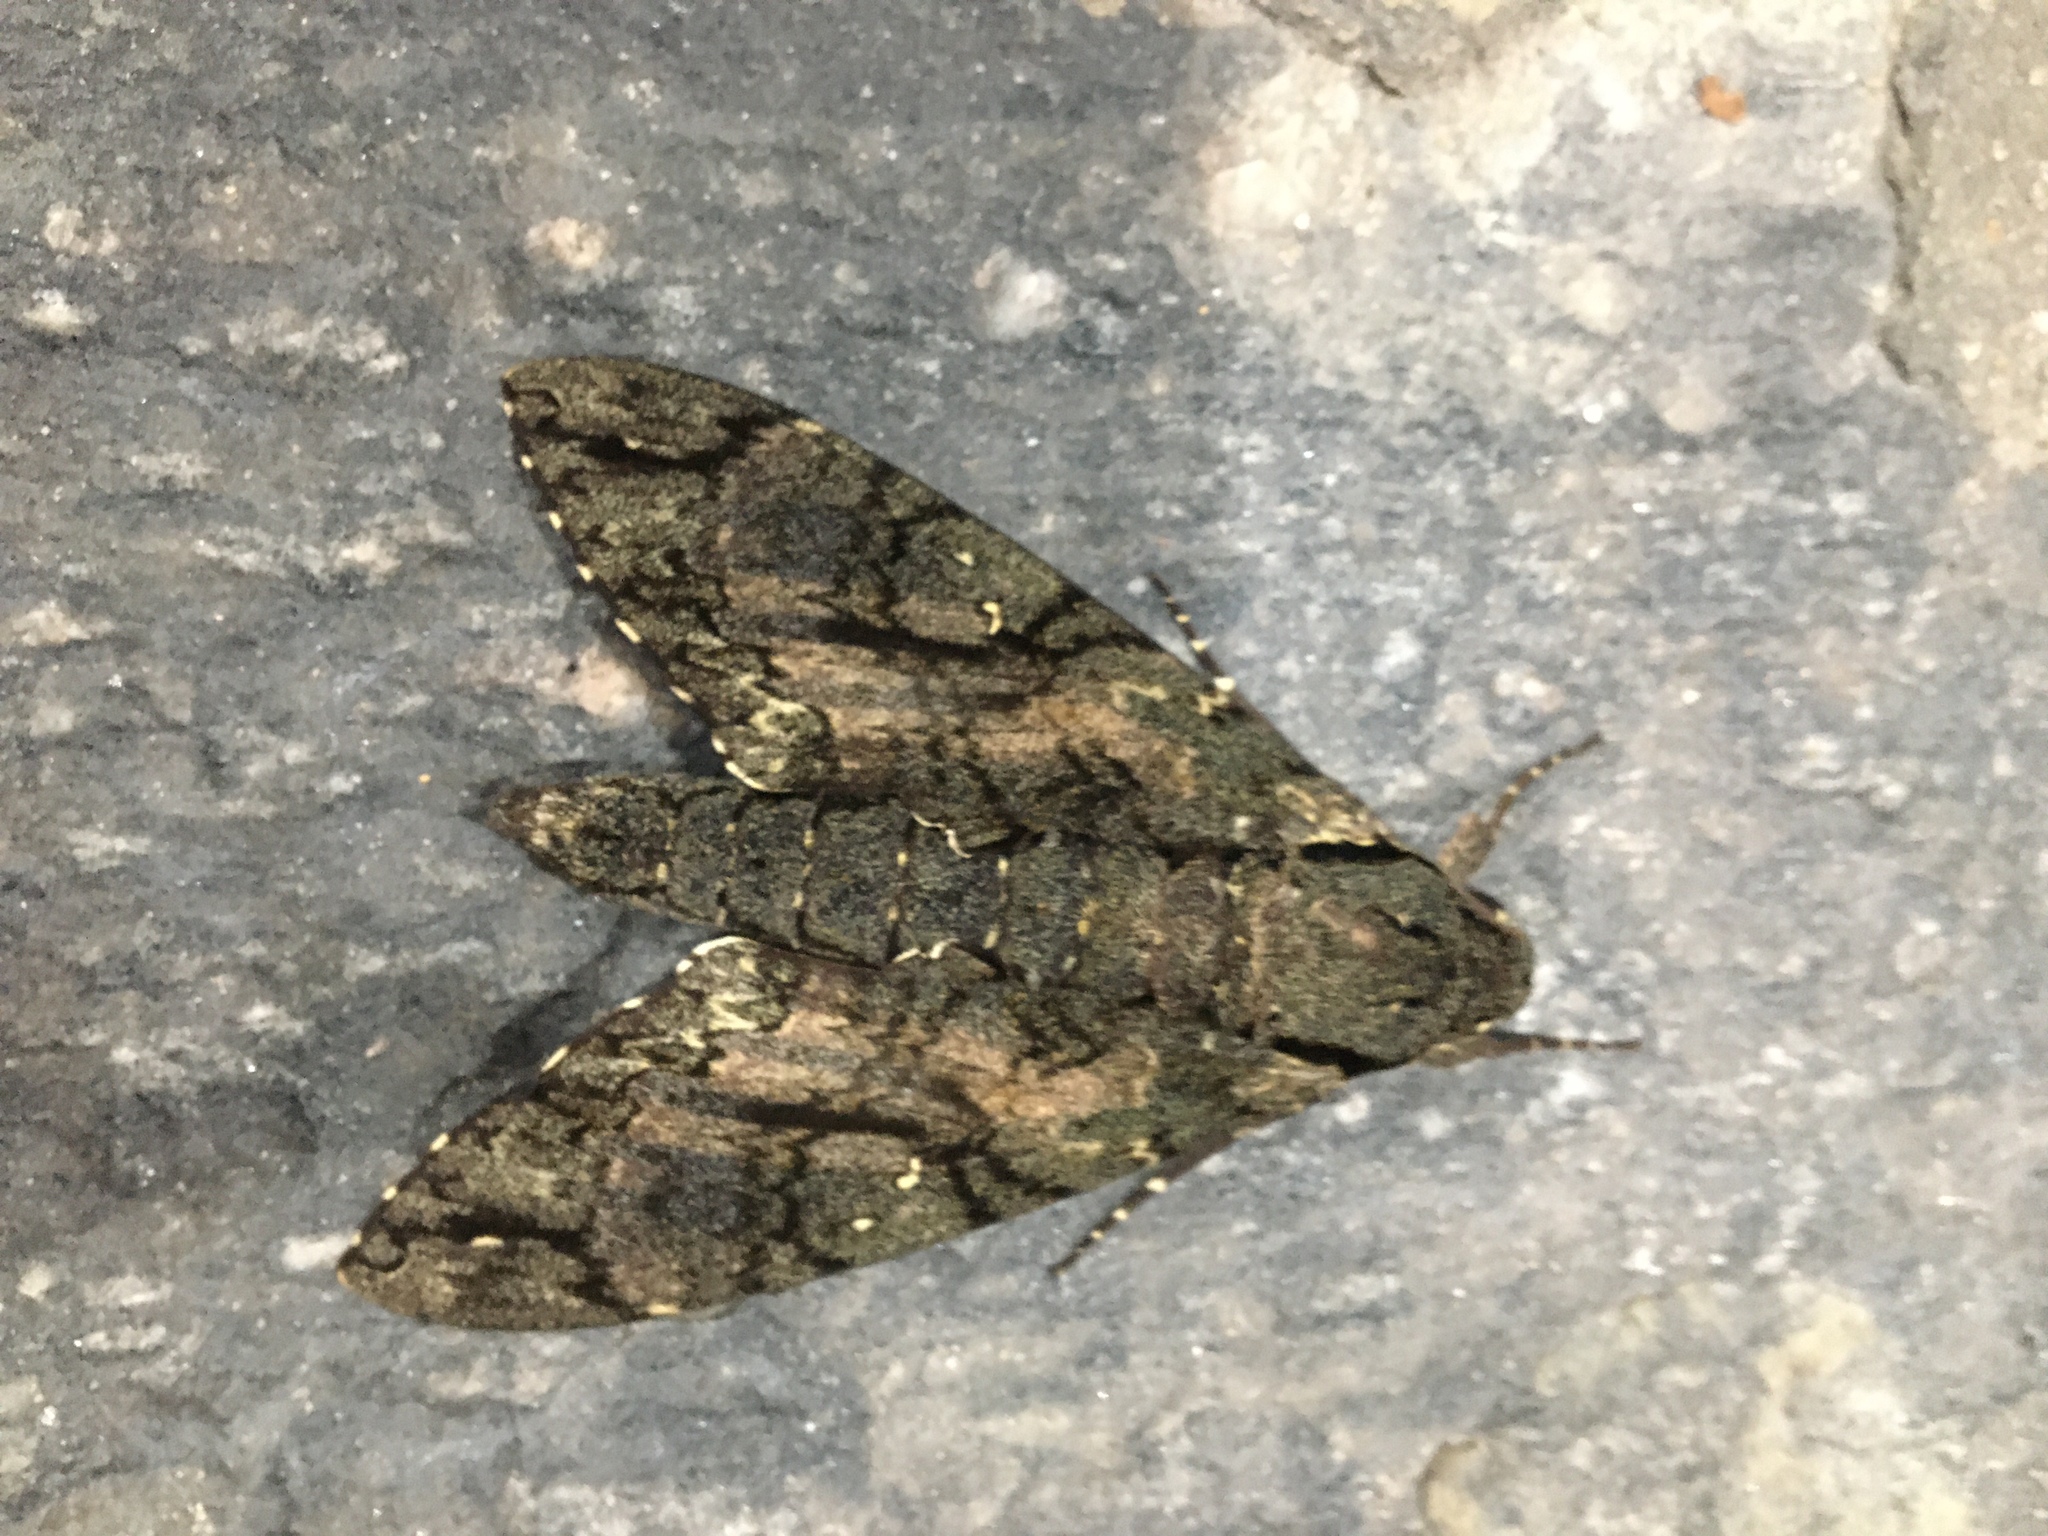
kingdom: Animalia
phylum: Arthropoda
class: Insecta
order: Lepidoptera
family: Sphingidae
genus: Cocytius
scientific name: Cocytius antaeus
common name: Giant sphinx
